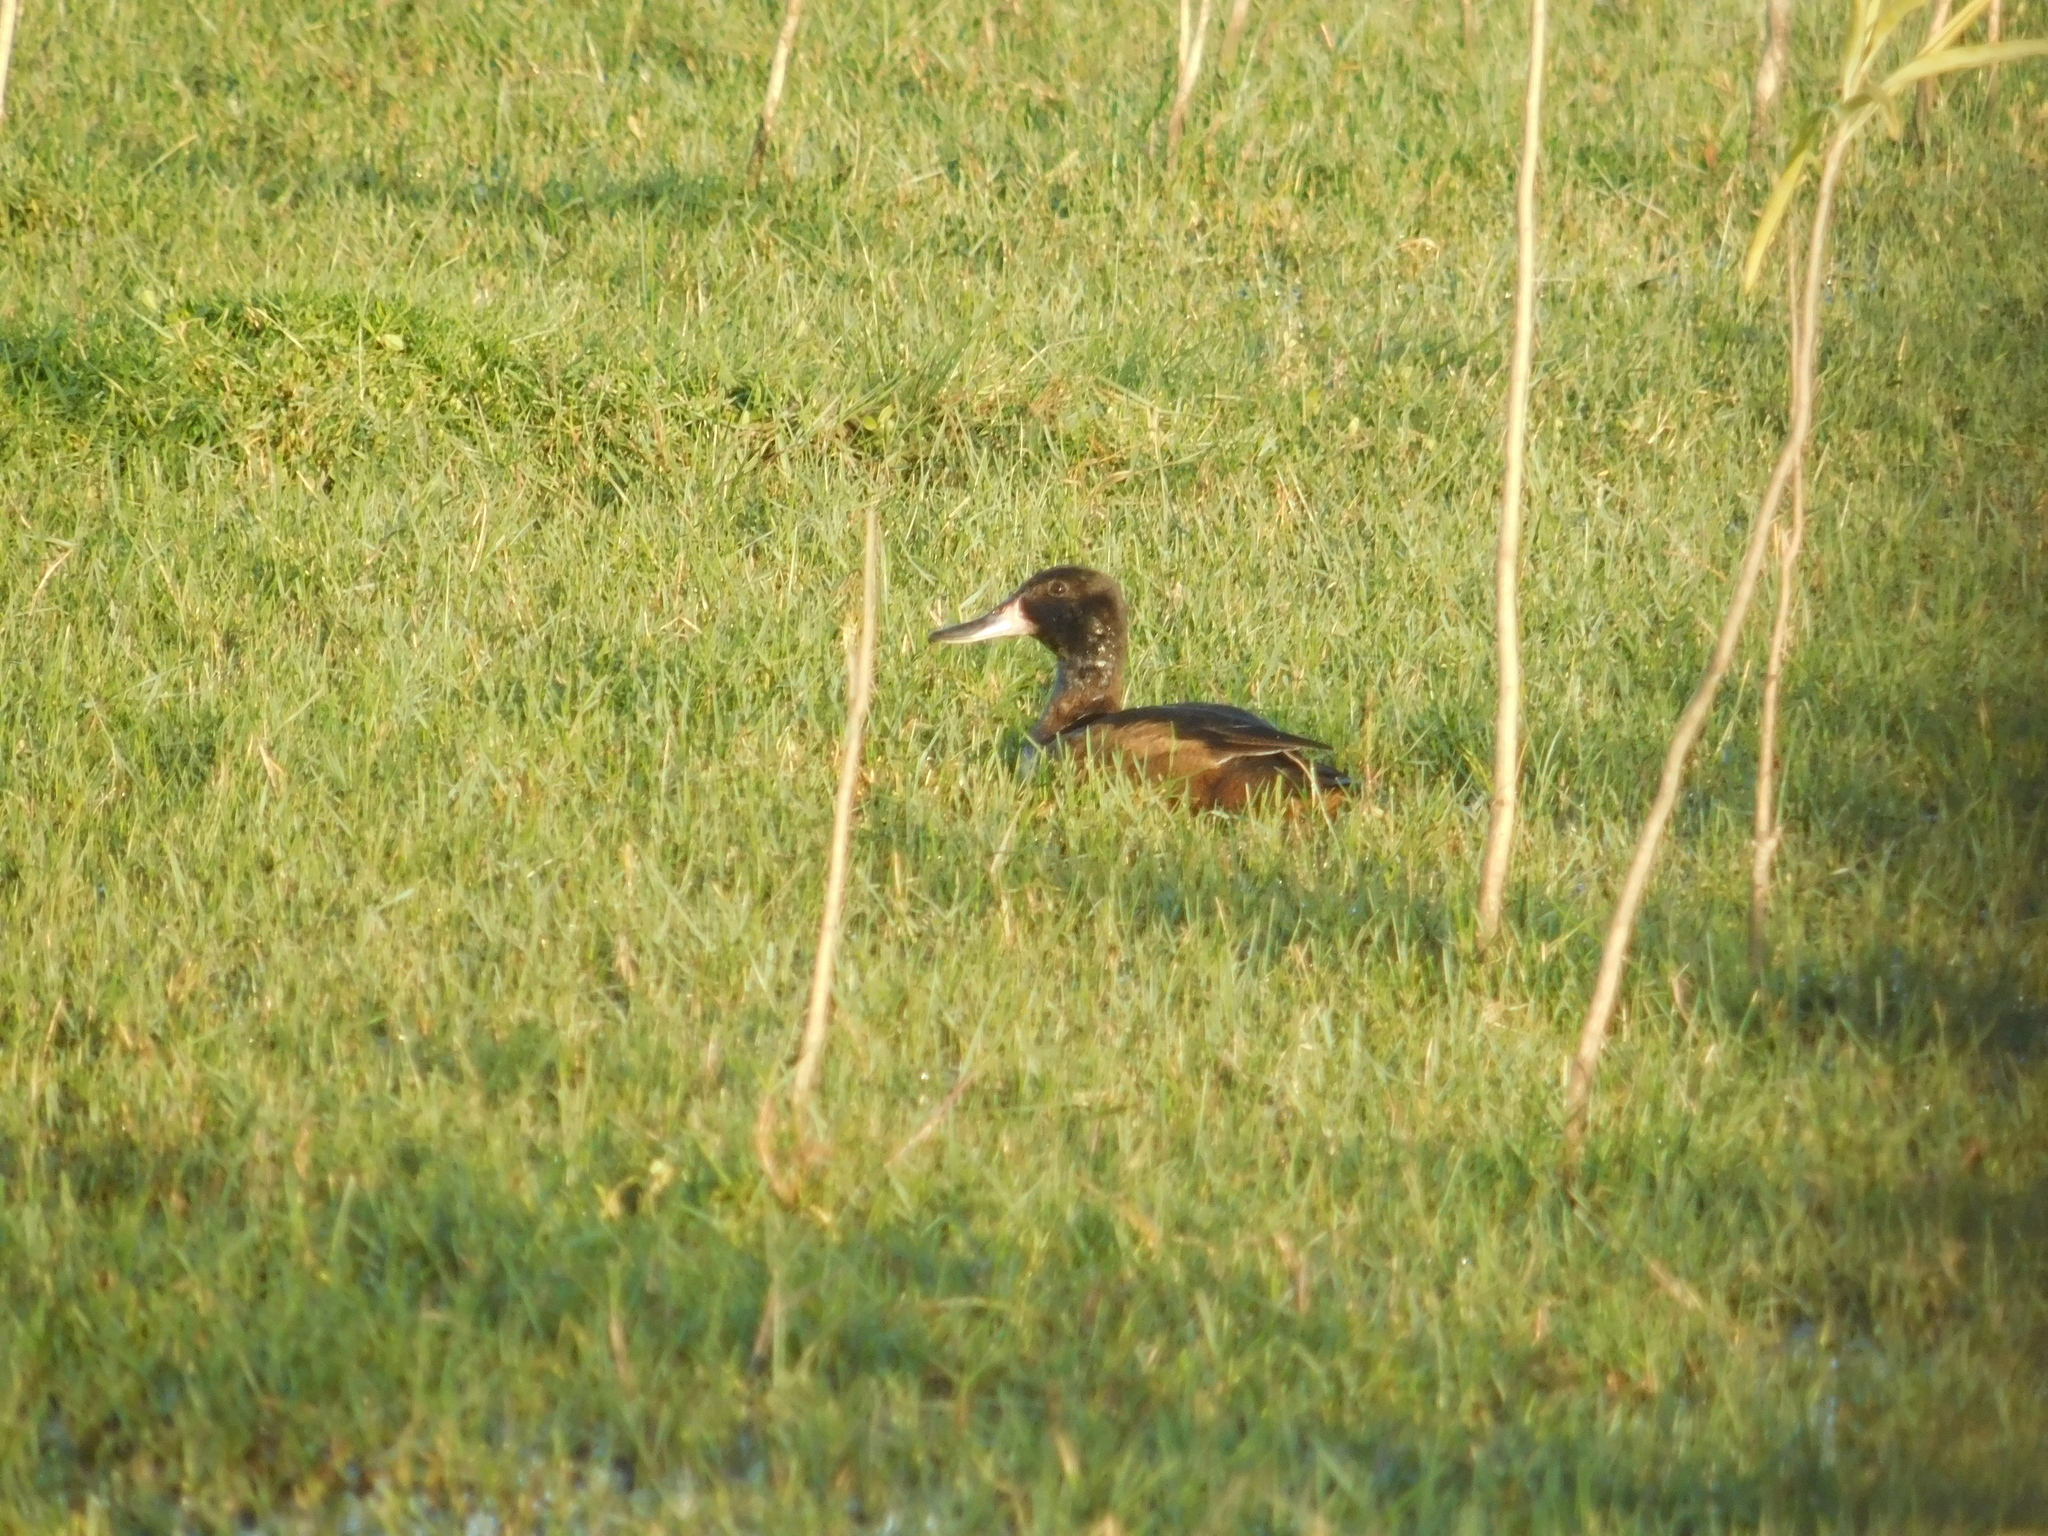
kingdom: Animalia
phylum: Chordata
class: Aves
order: Anseriformes
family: Anatidae
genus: Heteronetta
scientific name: Heteronetta atricapilla
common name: Black-headed duck
